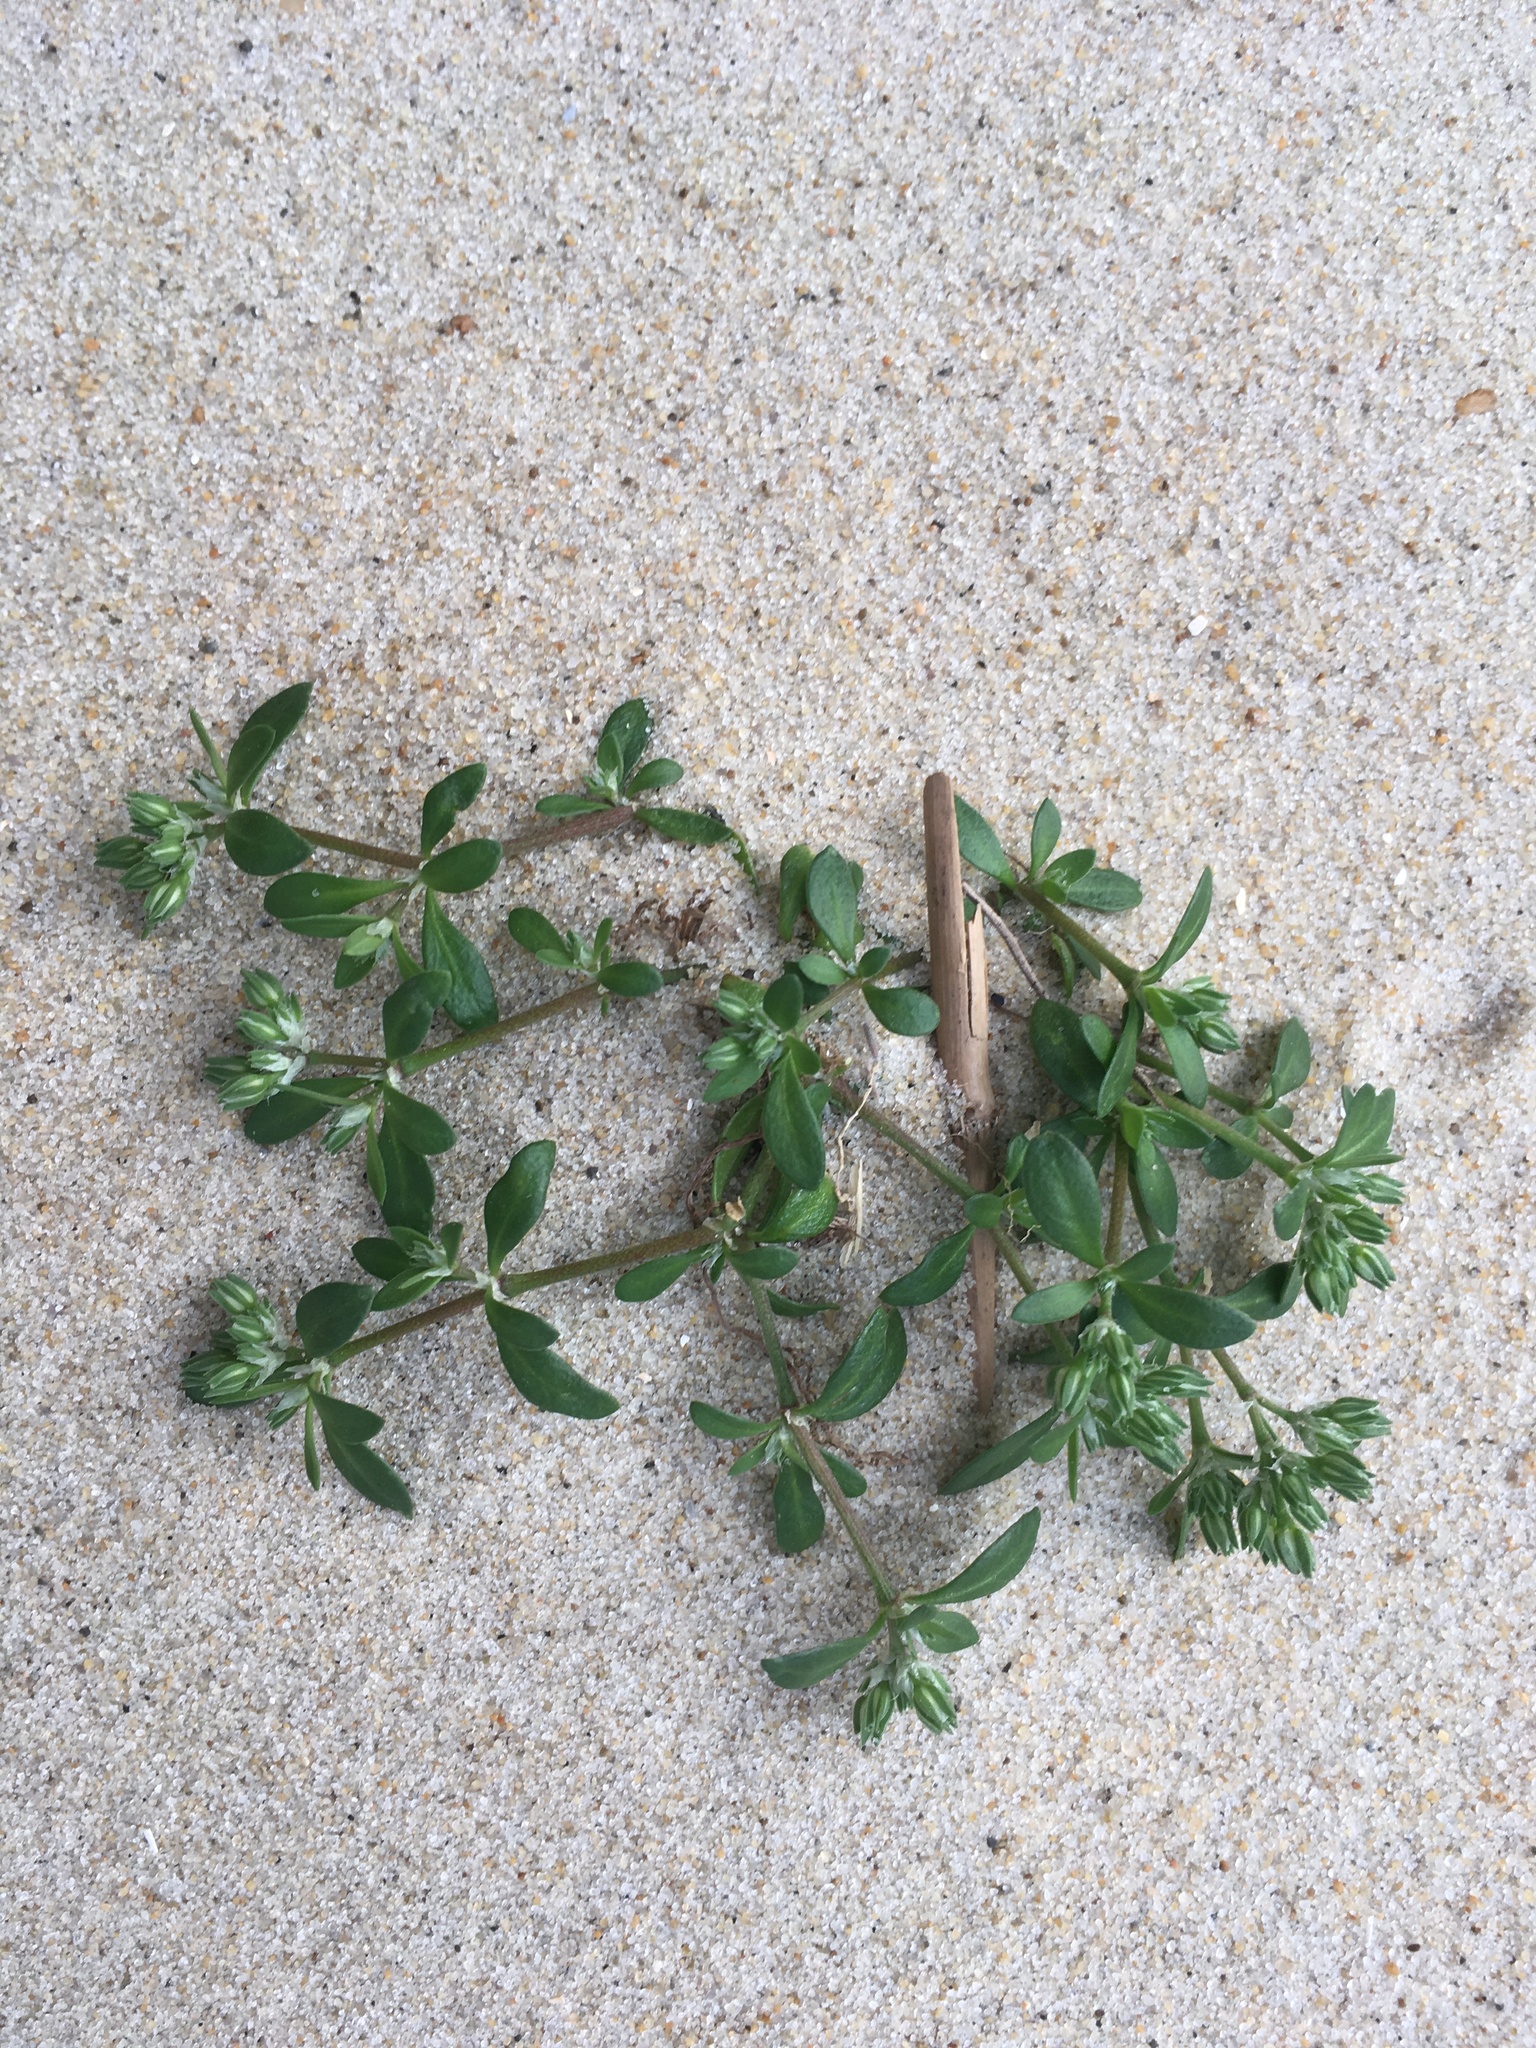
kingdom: Plantae
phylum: Tracheophyta
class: Magnoliopsida
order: Caryophyllales
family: Caryophyllaceae
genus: Polycarpon
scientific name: Polycarpon tetraphyllum
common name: Four-leaved all-seed
